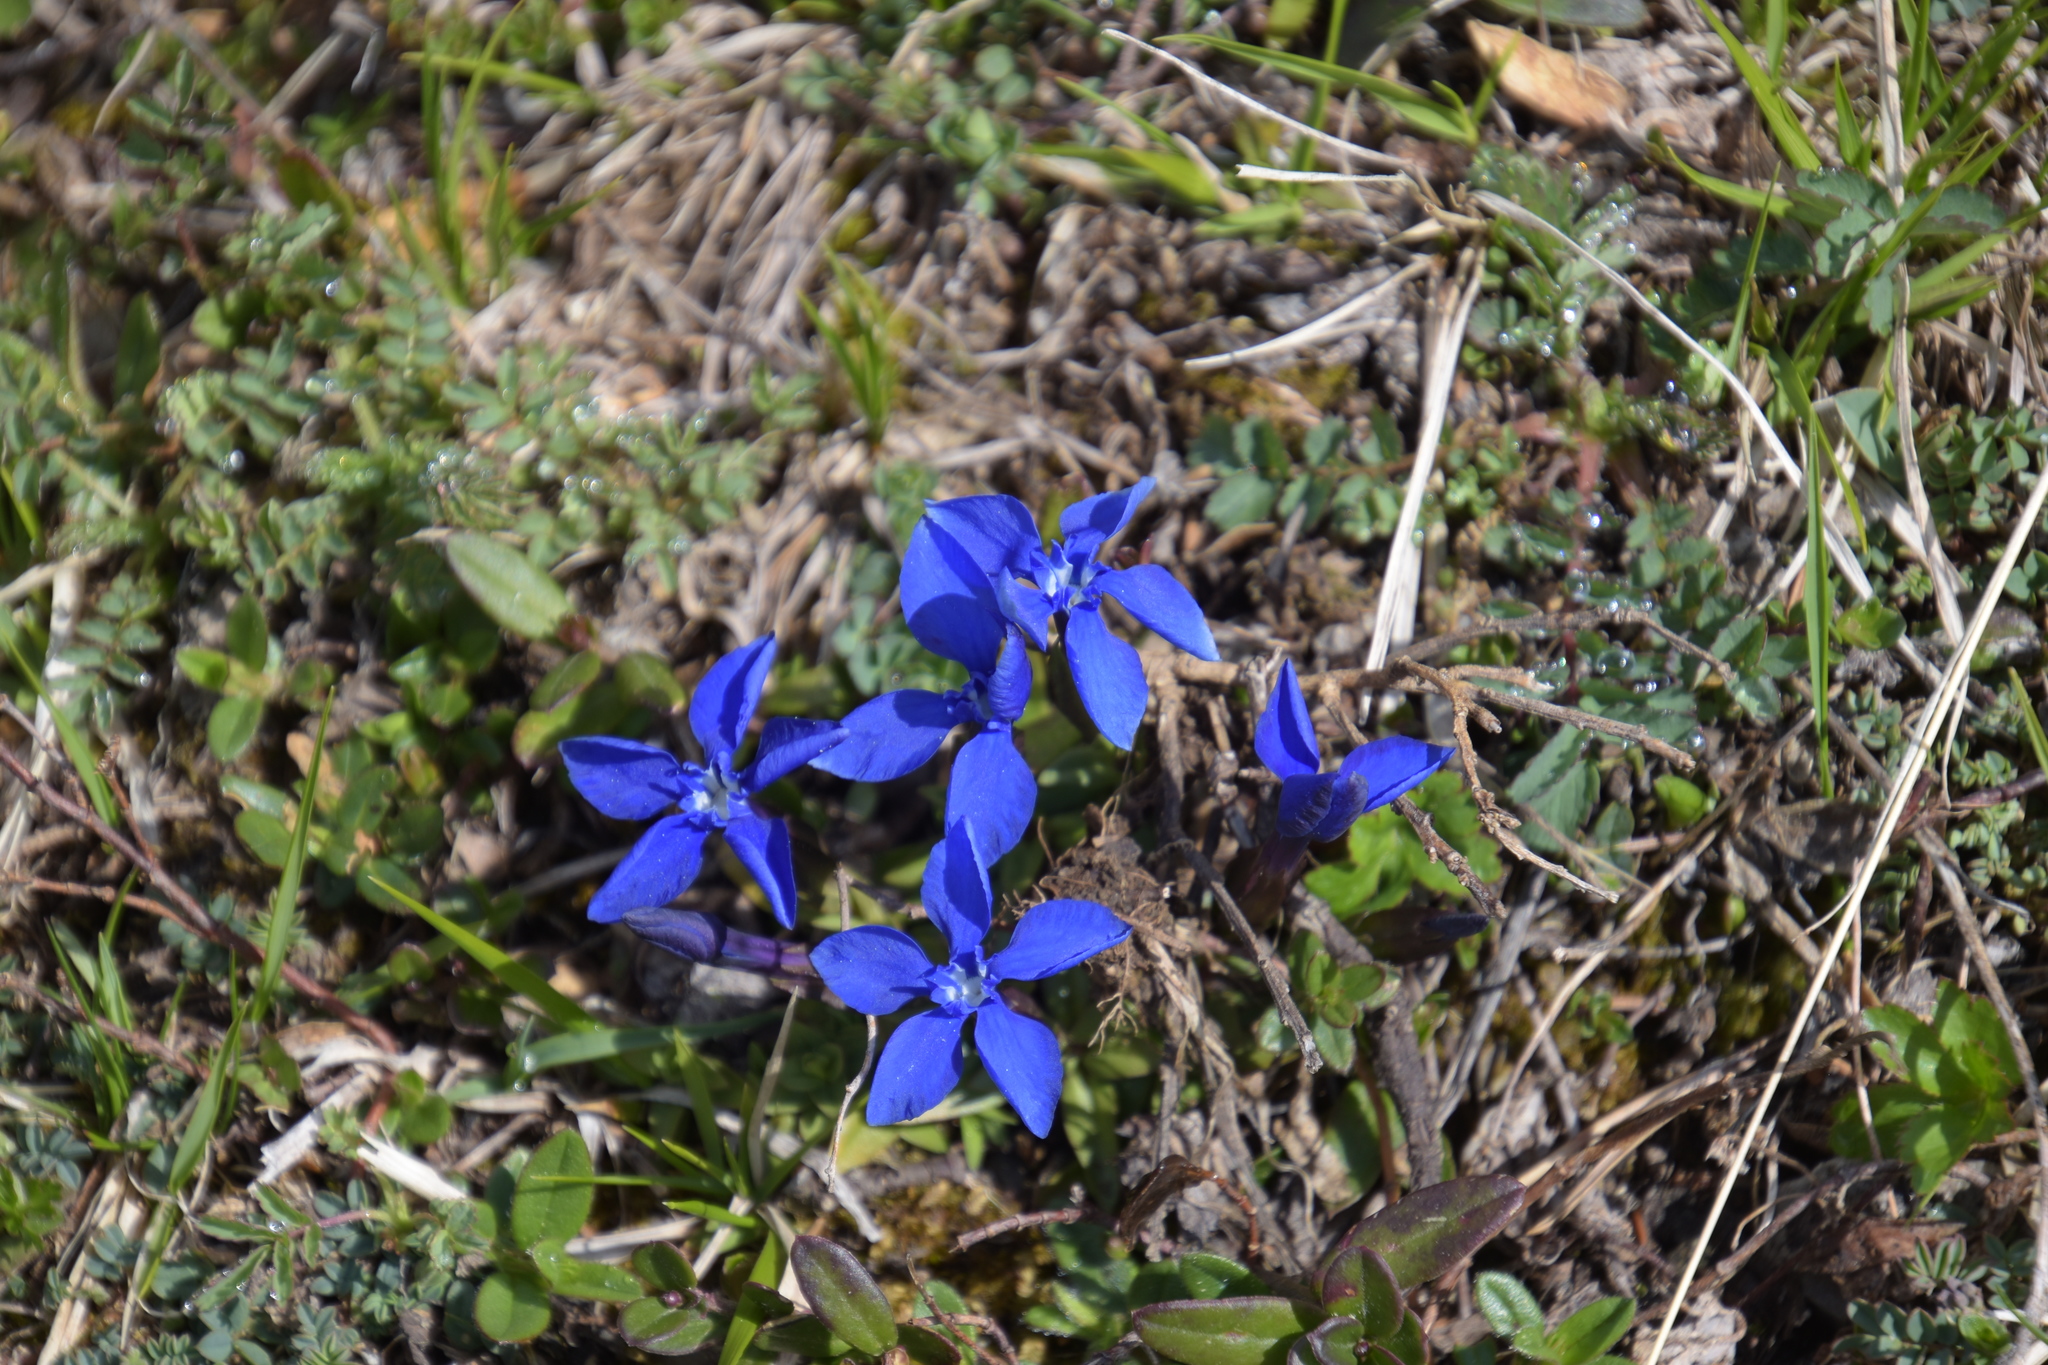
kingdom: Plantae
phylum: Tracheophyta
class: Magnoliopsida
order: Gentianales
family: Gentianaceae
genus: Gentiana
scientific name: Gentiana verna
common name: Spring gentian
